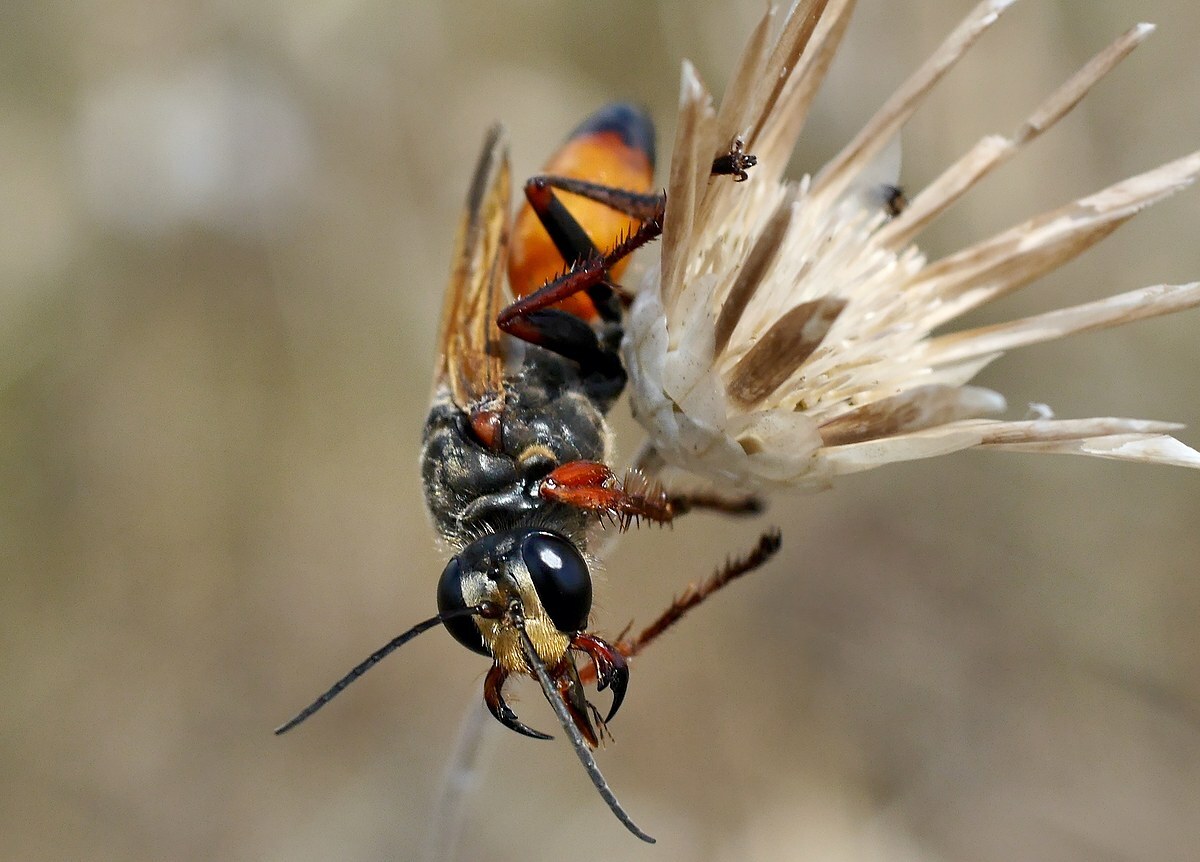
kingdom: Animalia
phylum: Arthropoda
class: Insecta
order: Hymenoptera
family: Sphecidae
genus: Sphex
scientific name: Sphex flavipennis
